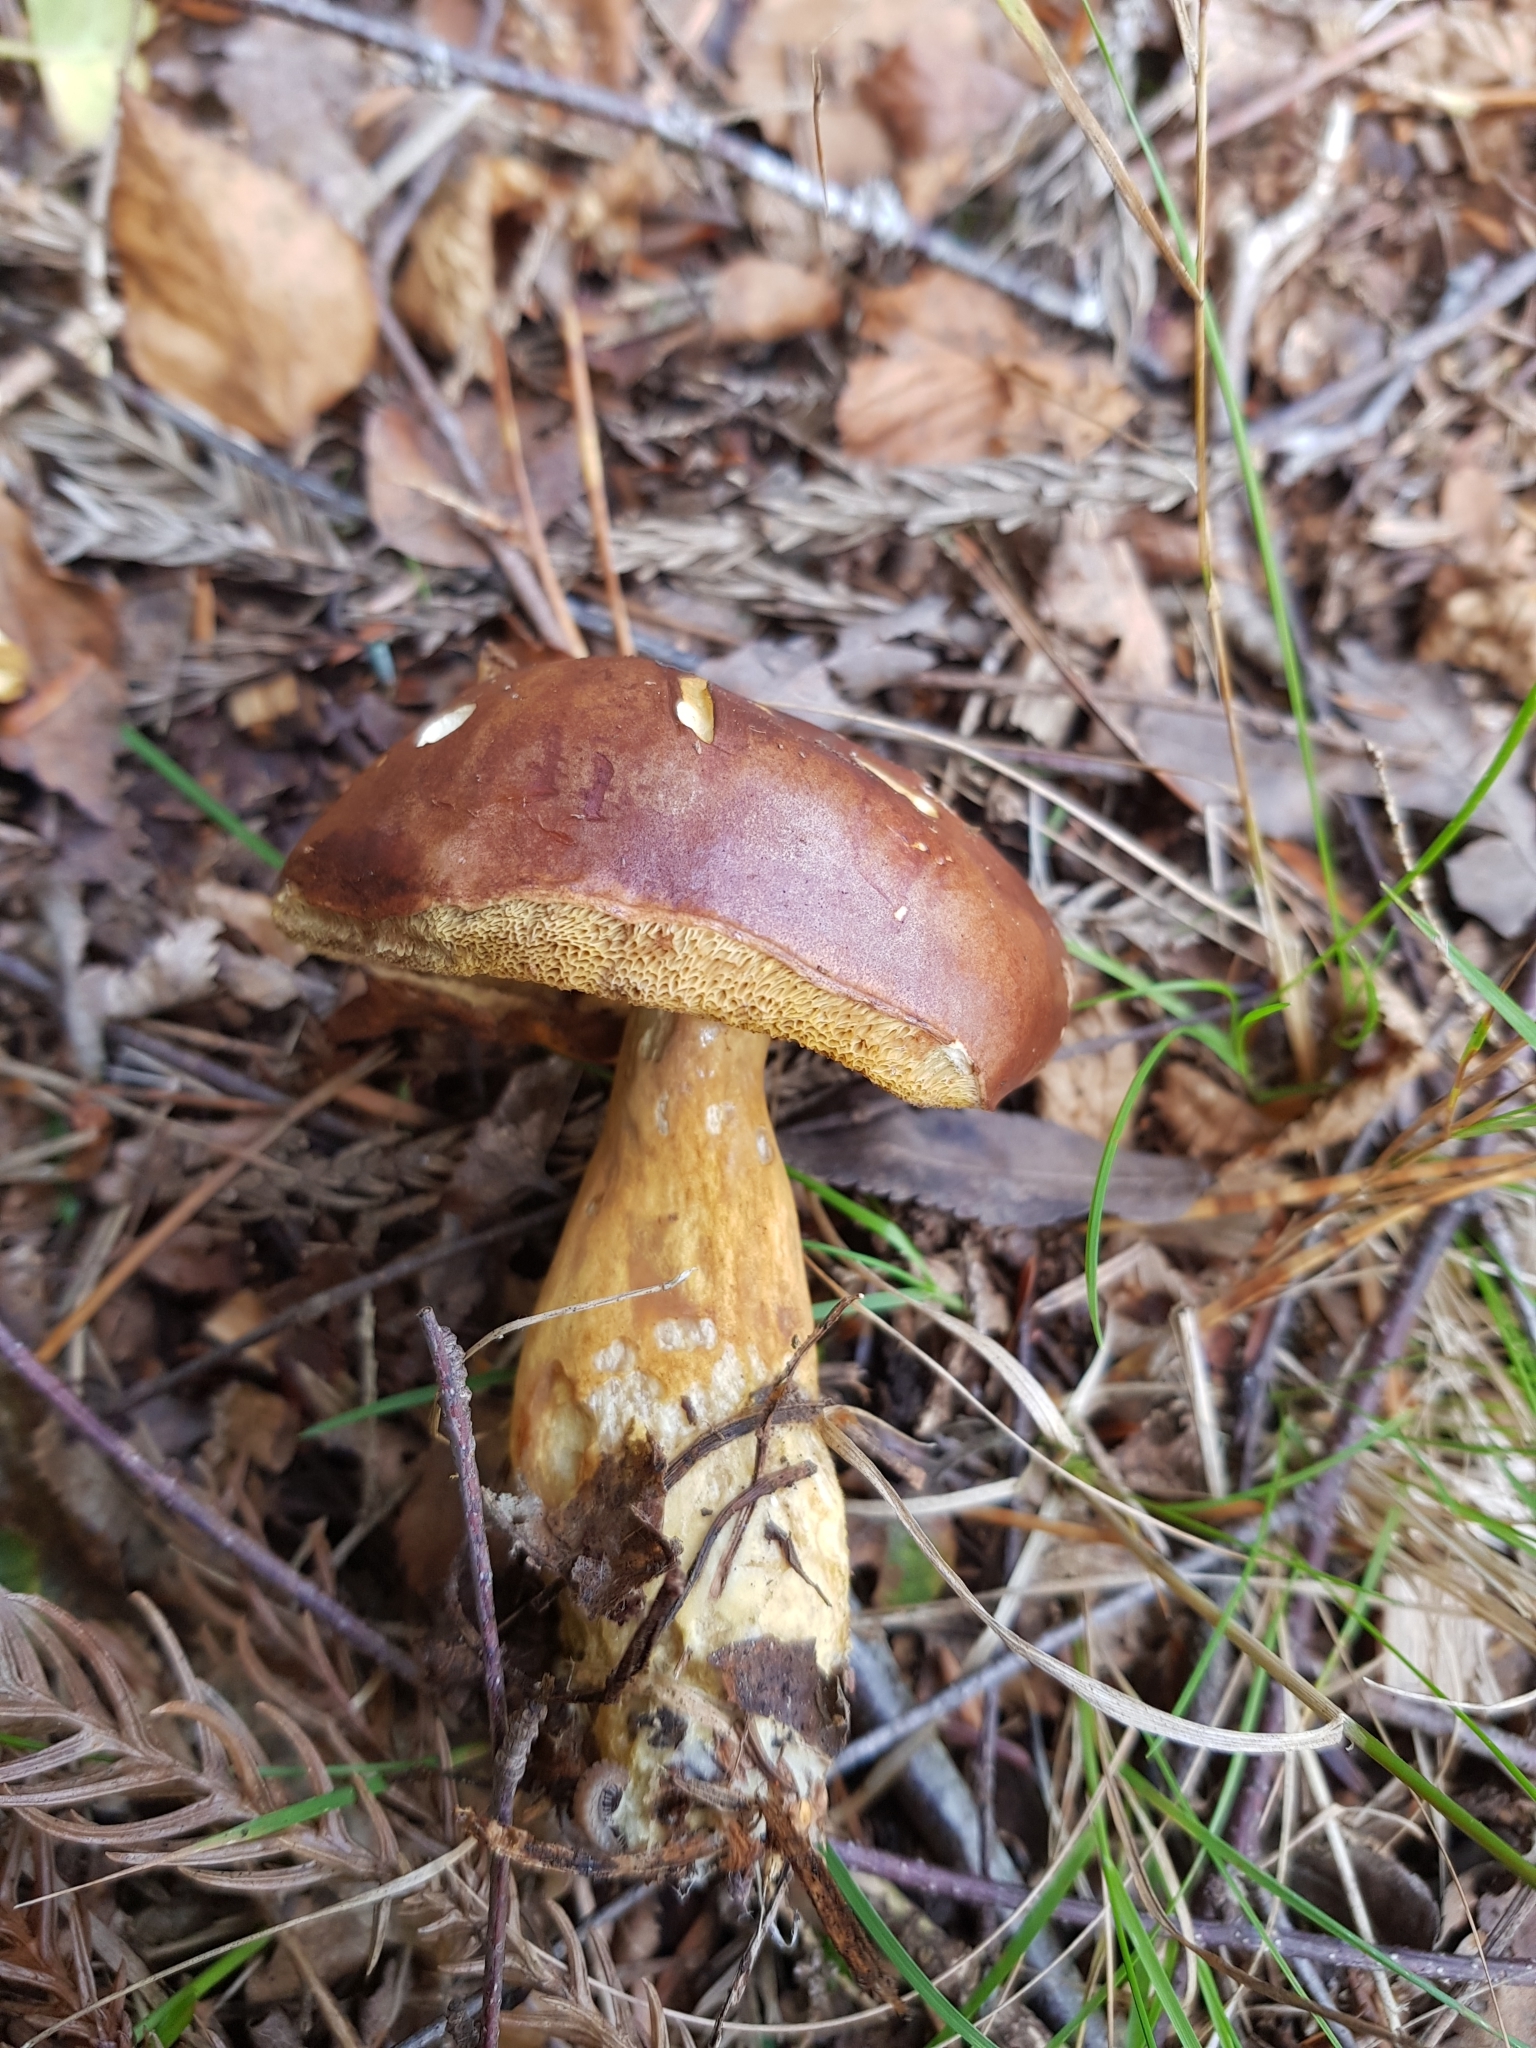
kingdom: Fungi
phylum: Basidiomycota
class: Agaricomycetes
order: Boletales
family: Boletaceae
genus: Imleria
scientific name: Imleria badia
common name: Bay bolete
